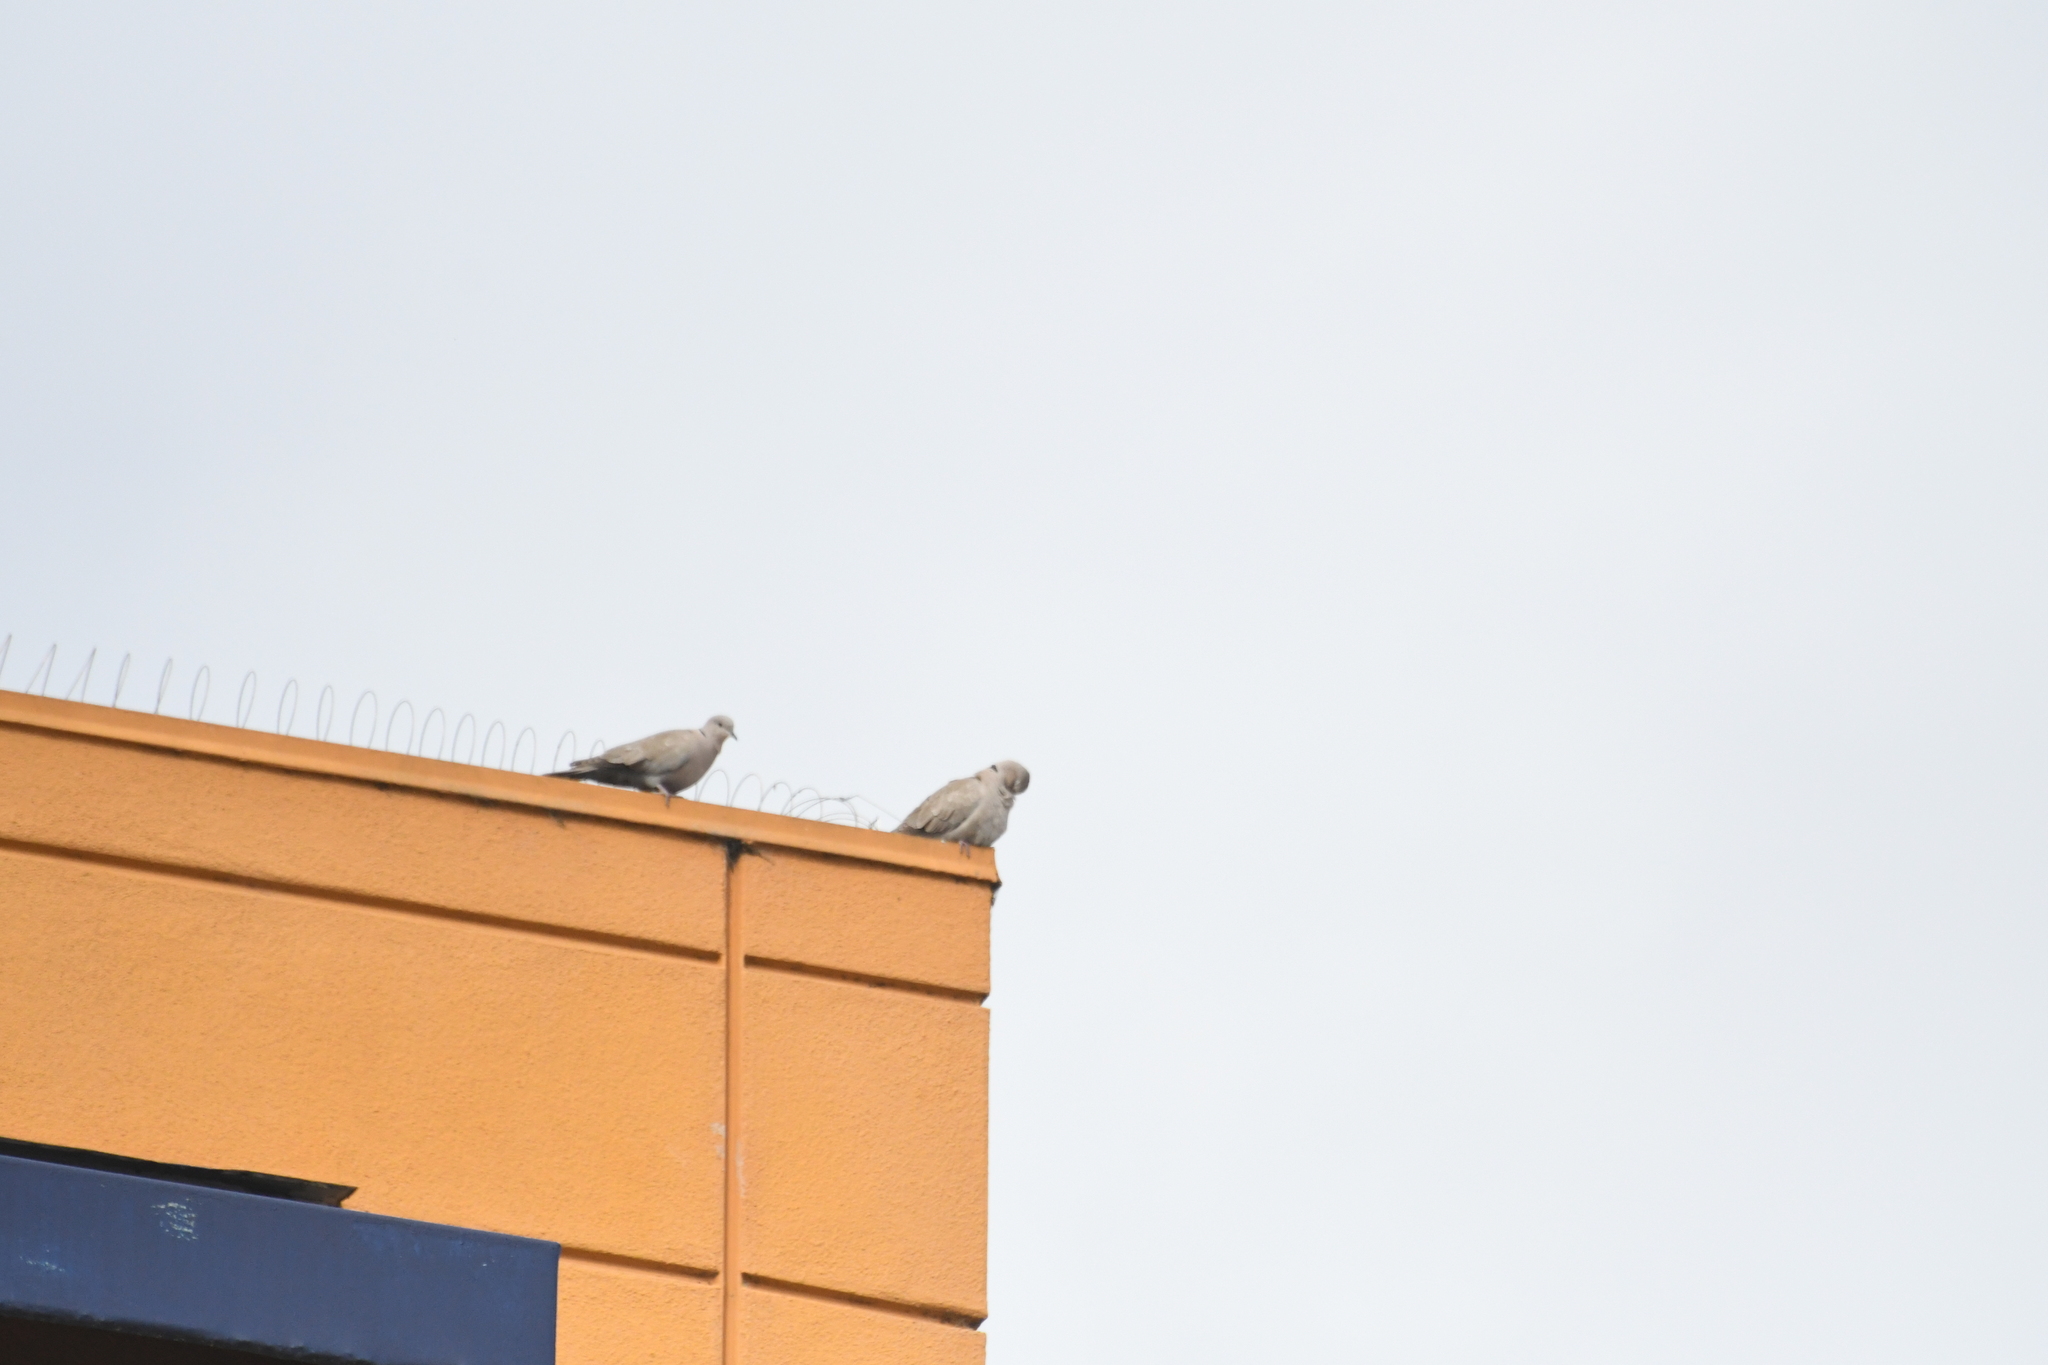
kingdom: Animalia
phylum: Chordata
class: Aves
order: Columbiformes
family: Columbidae
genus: Streptopelia
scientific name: Streptopelia decaocto
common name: Eurasian collared dove
